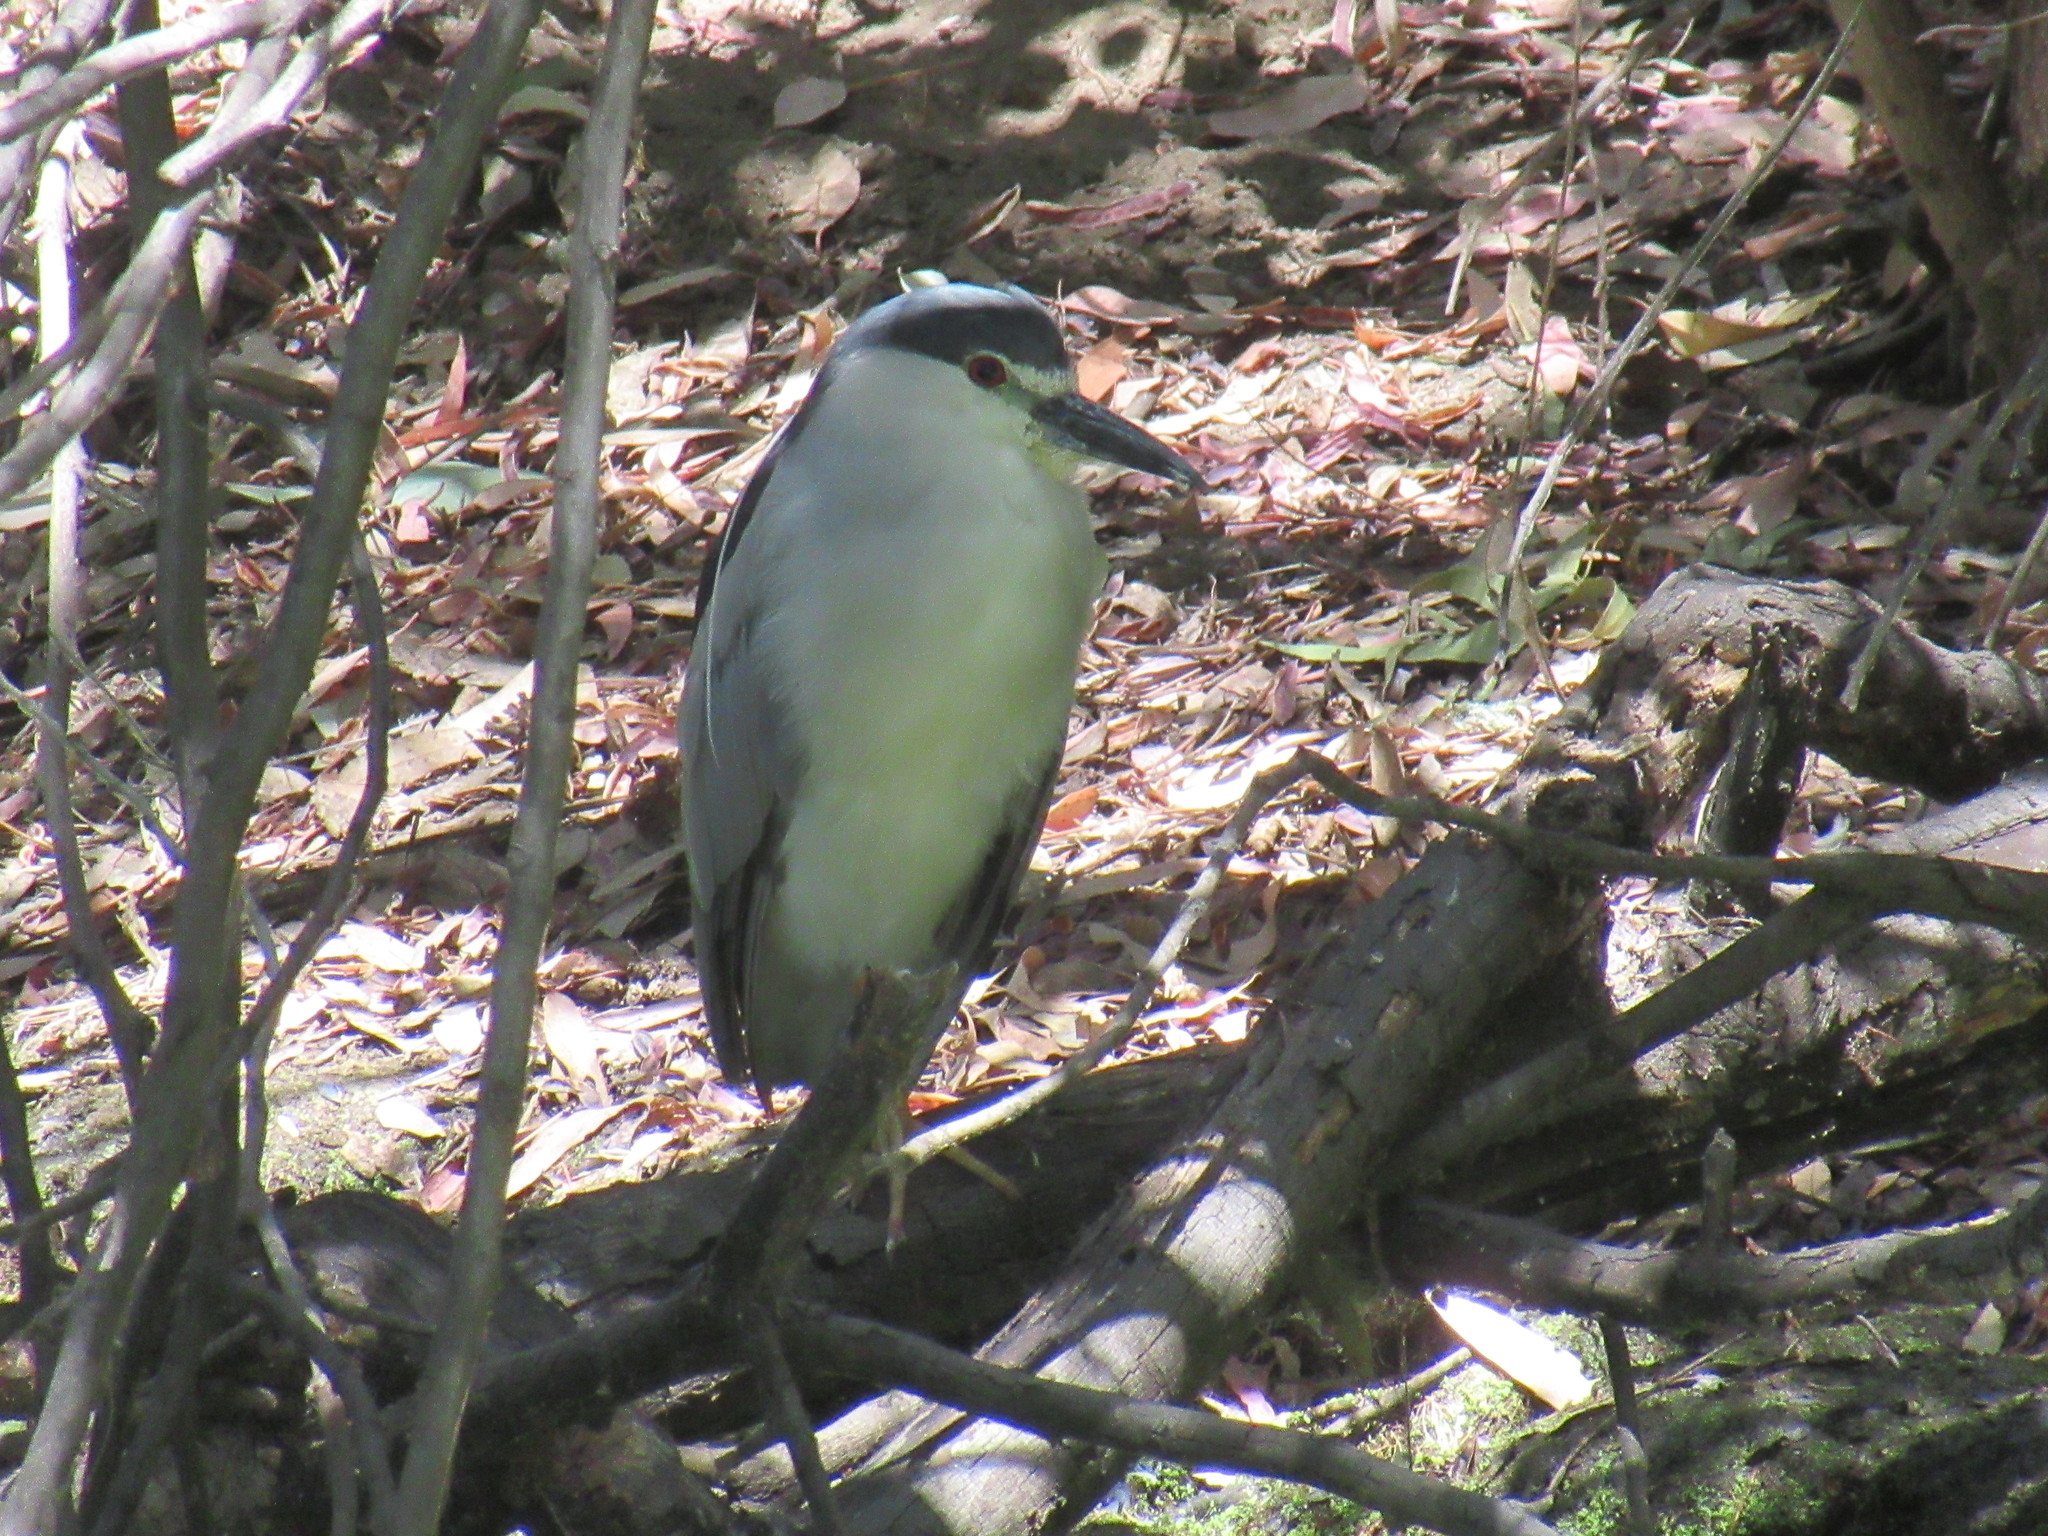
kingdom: Animalia
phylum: Chordata
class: Aves
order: Pelecaniformes
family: Ardeidae
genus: Nycticorax
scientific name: Nycticorax nycticorax
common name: Black-crowned night heron
